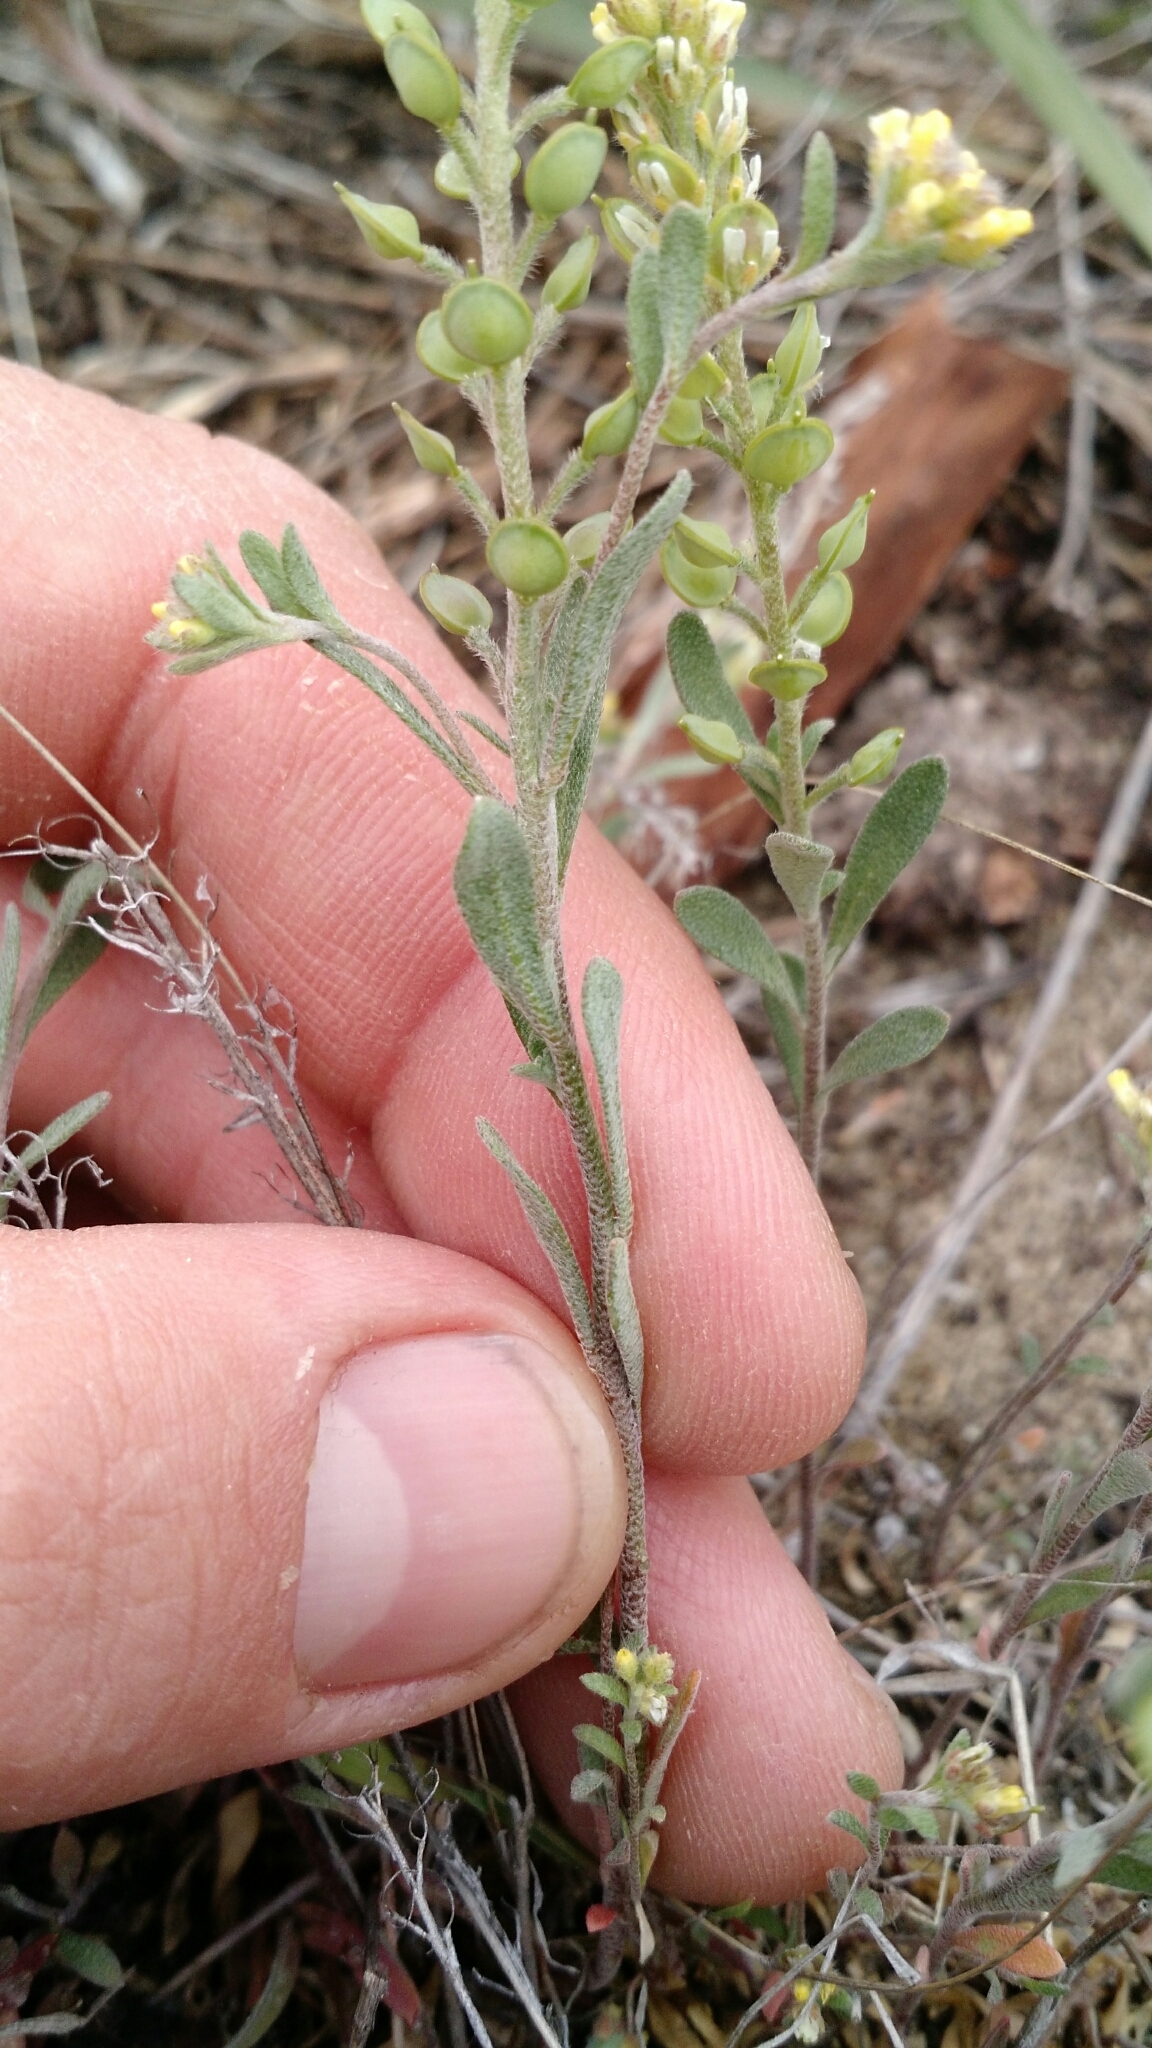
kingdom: Plantae
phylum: Tracheophyta
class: Magnoliopsida
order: Brassicales
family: Brassicaceae
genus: Alyssum
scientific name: Alyssum turkestanicum
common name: Desert alyssum
